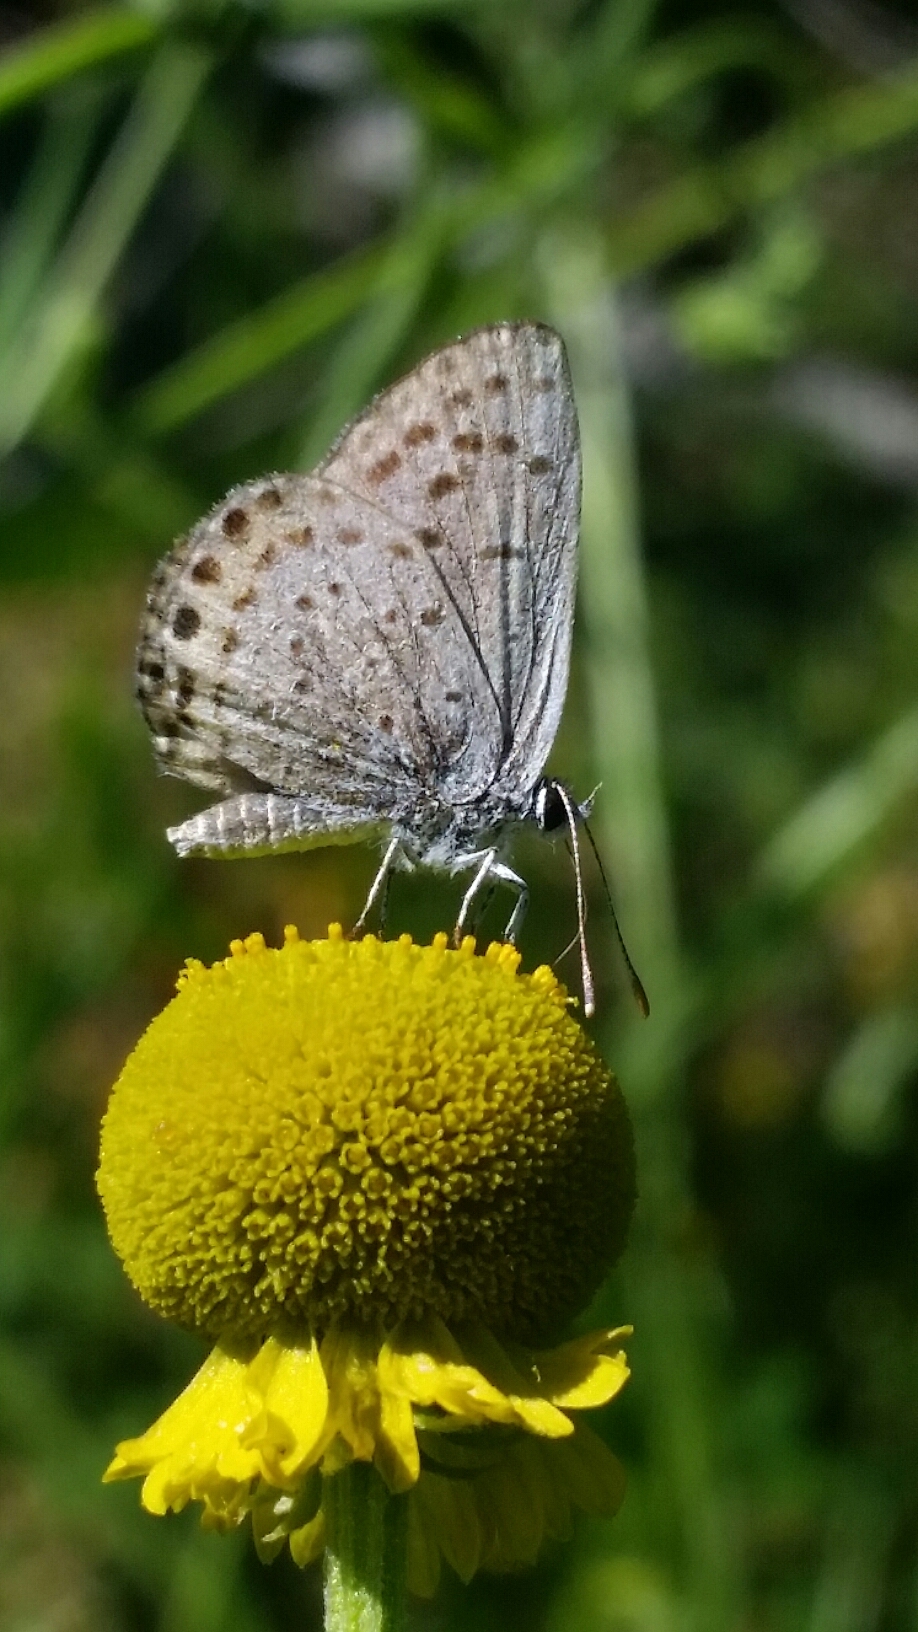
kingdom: Animalia
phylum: Arthropoda
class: Insecta
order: Lepidoptera
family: Lycaenidae
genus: Icaricia
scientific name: Icaricia acmon
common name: Acmon blue
